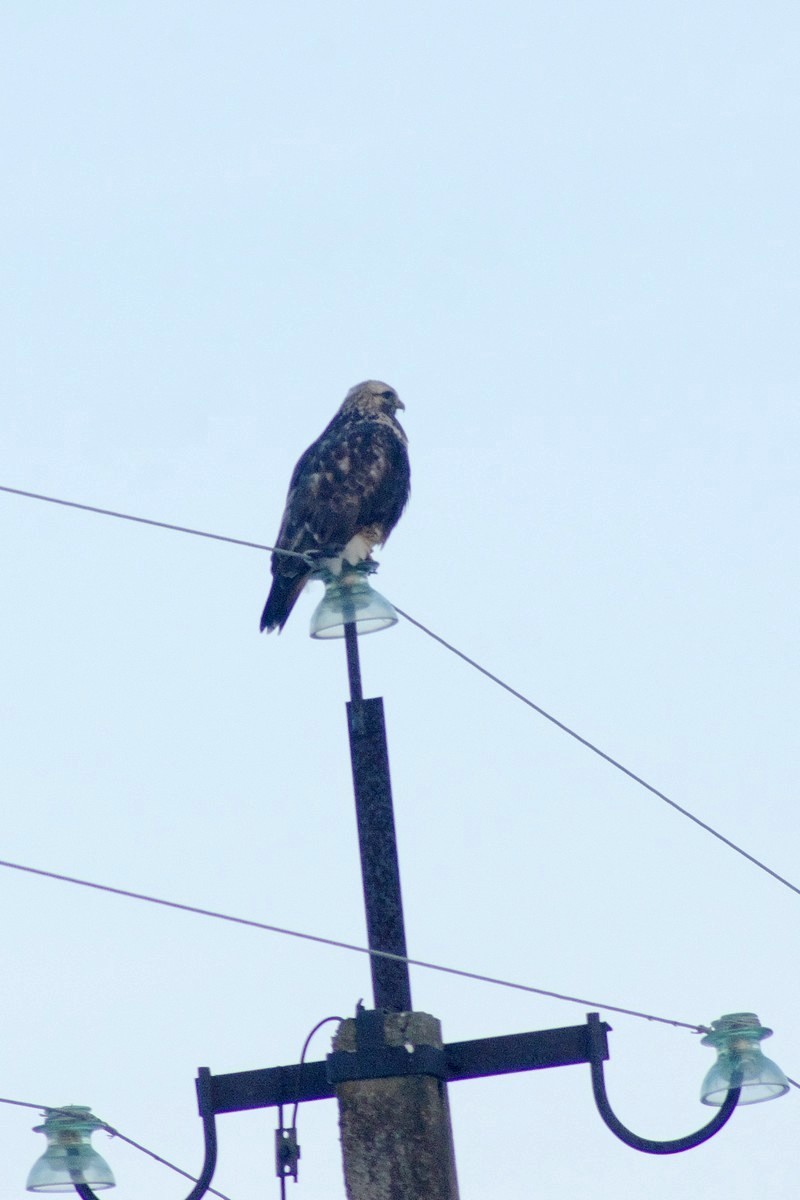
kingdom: Animalia
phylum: Chordata
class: Aves
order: Accipitriformes
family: Accipitridae
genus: Buteo
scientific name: Buteo lagopus
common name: Rough-legged buzzard
